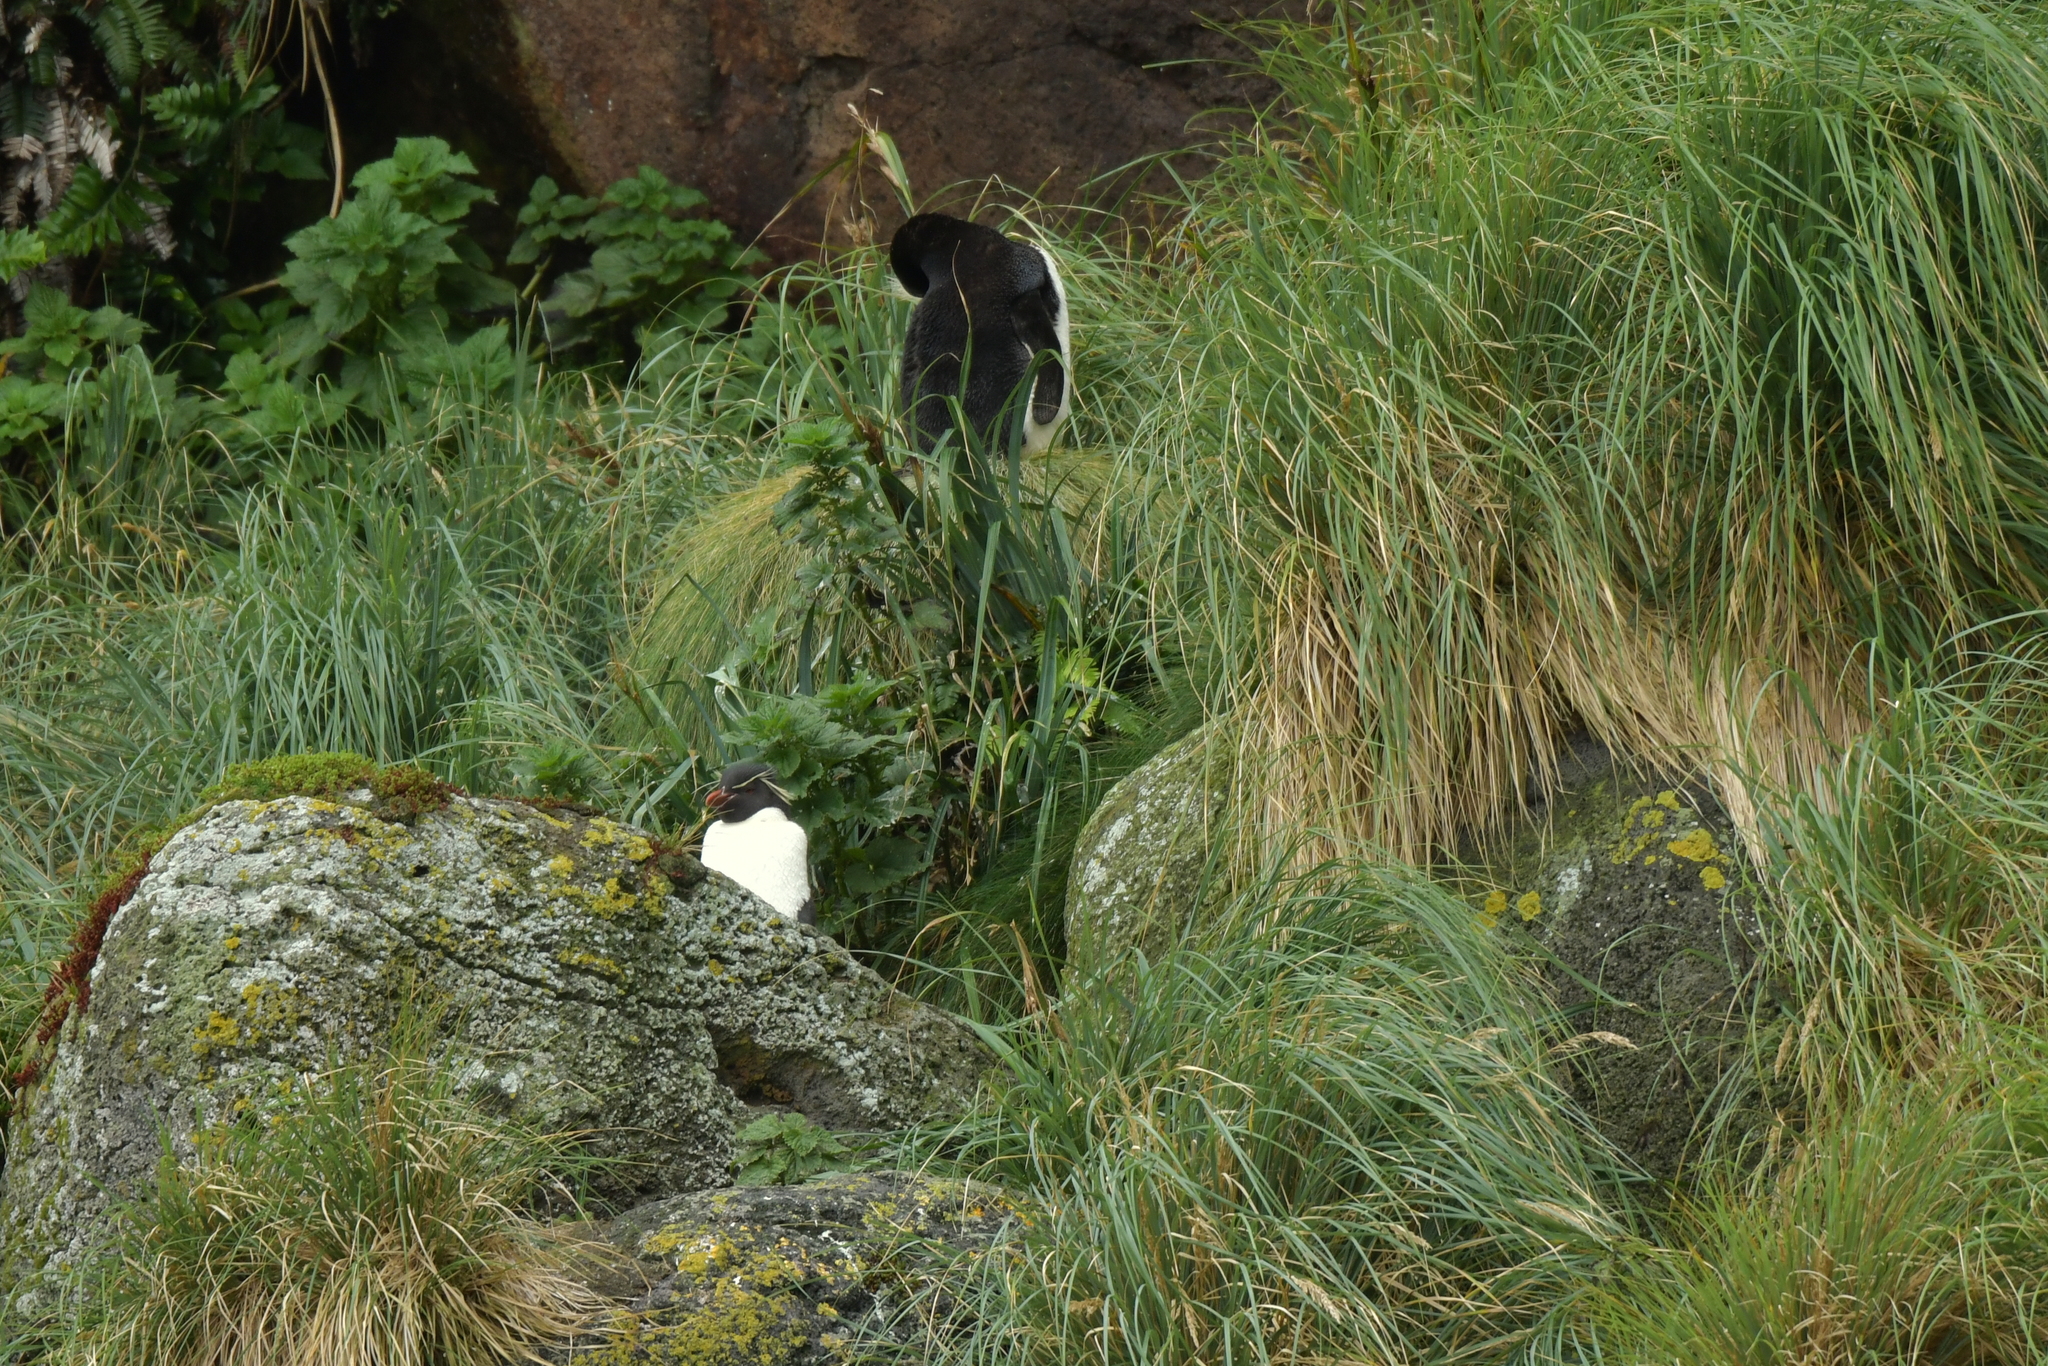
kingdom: Animalia
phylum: Chordata
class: Aves
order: Sphenisciformes
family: Spheniscidae
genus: Eudyptes
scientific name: Eudyptes filholi
